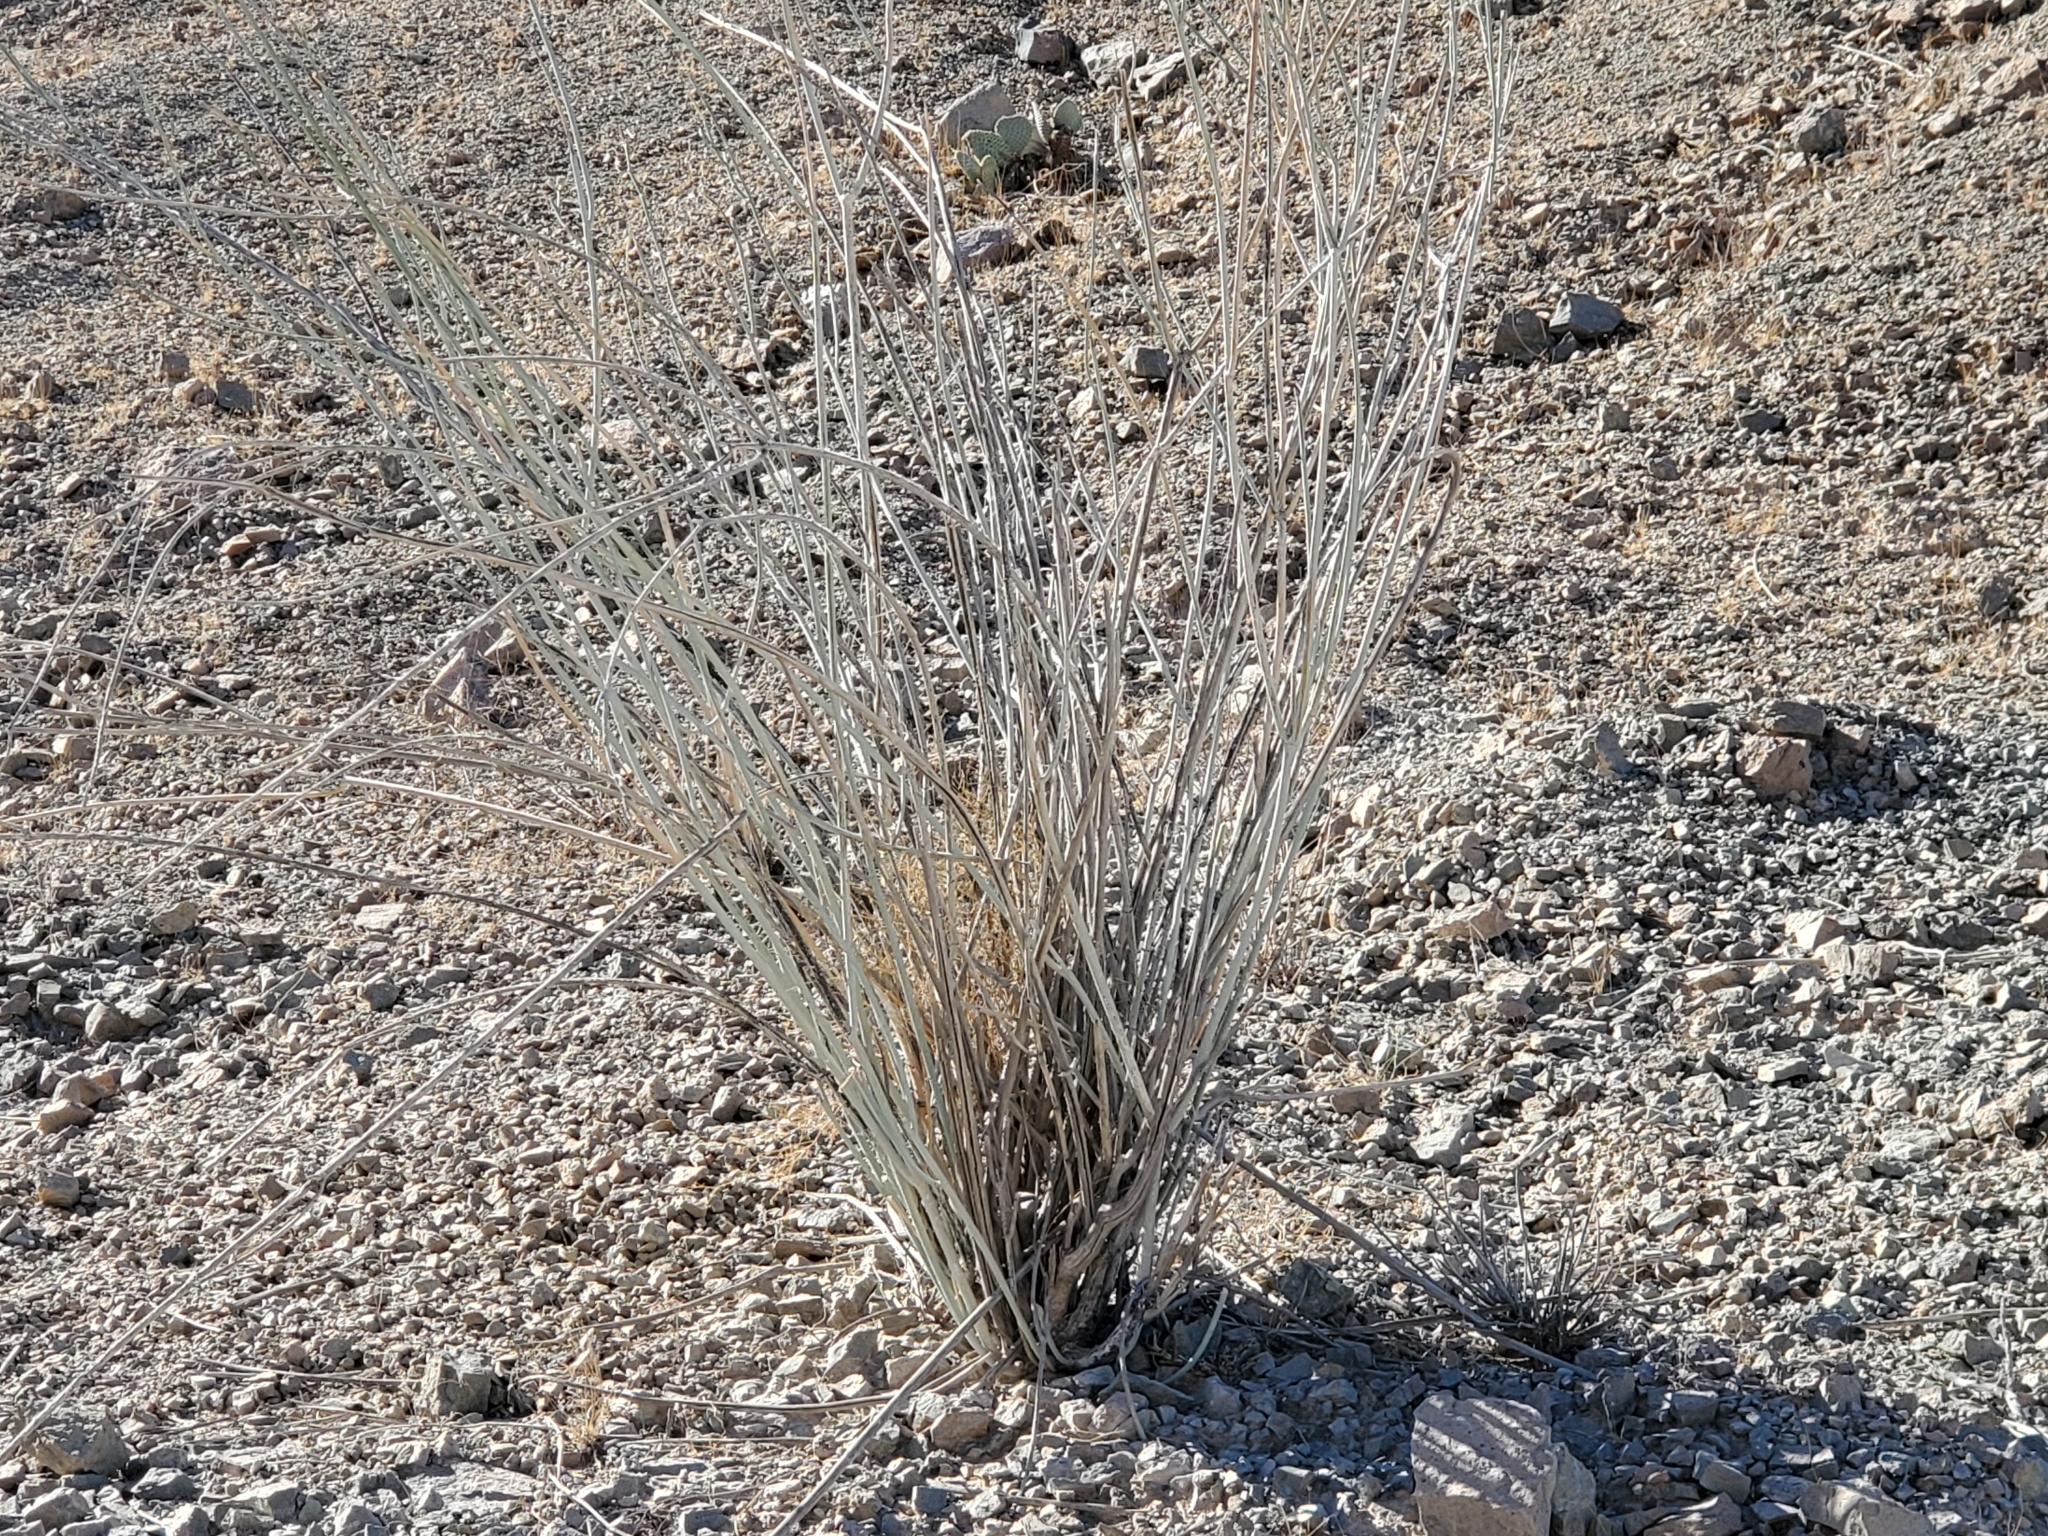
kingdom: Plantae
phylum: Tracheophyta
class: Magnoliopsida
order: Gentianales
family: Apocynaceae
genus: Asclepias
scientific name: Asclepias albicans
